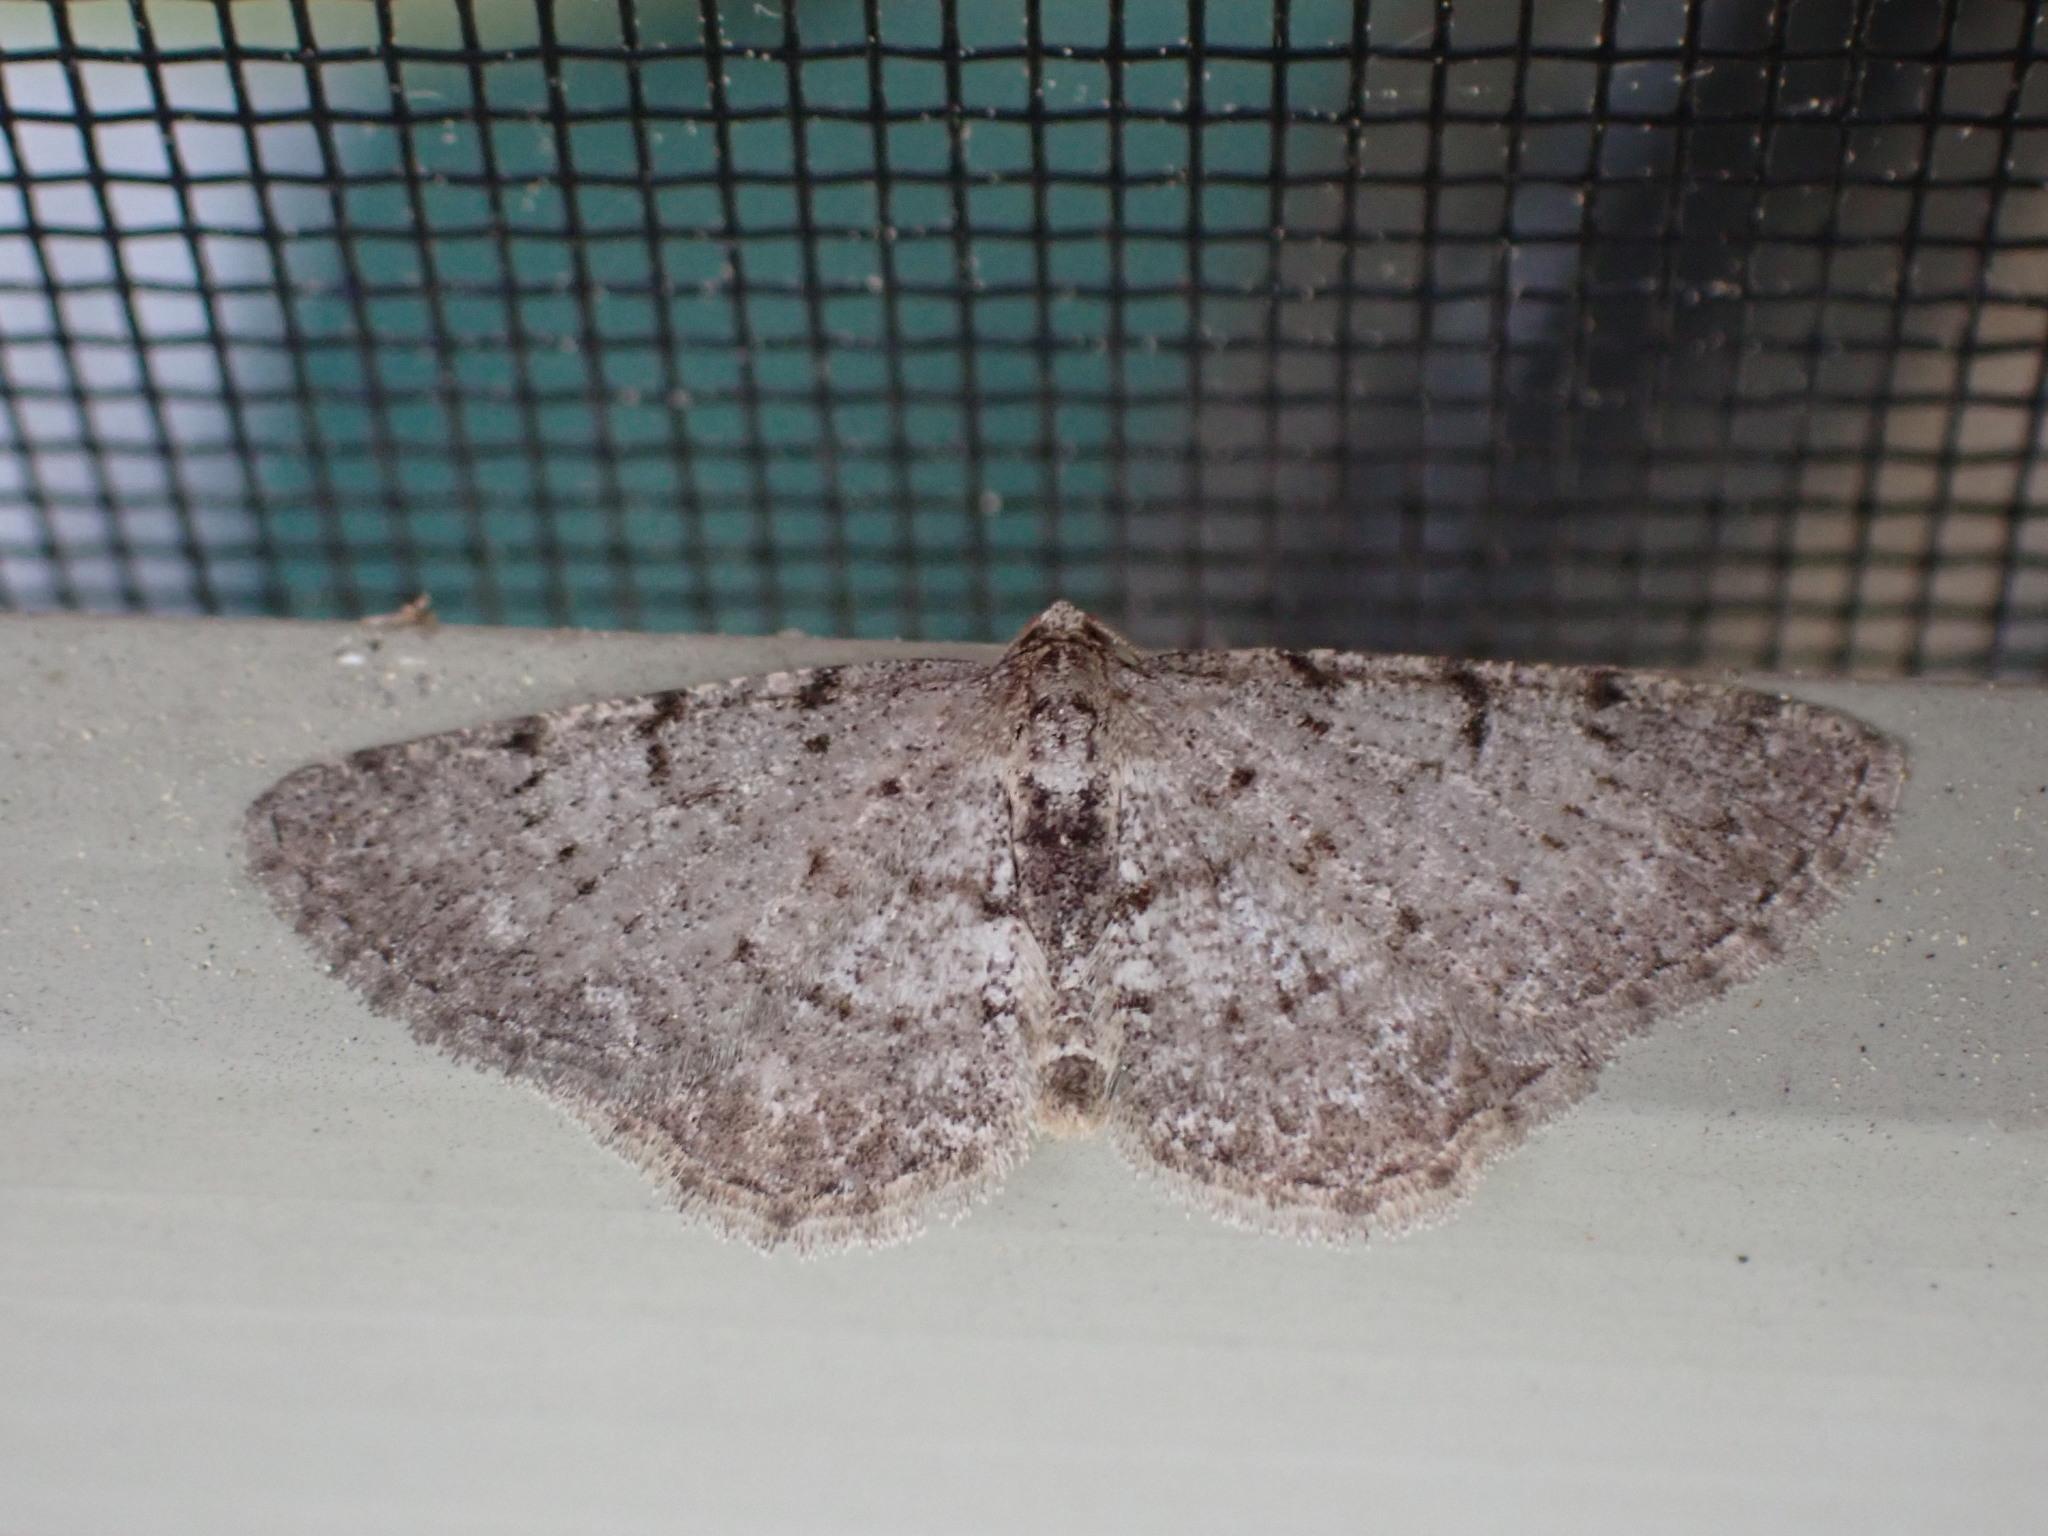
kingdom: Animalia
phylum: Arthropoda
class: Insecta
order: Lepidoptera
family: Geometridae
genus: Aethalura
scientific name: Aethalura intertexta
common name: Four-barred gray
